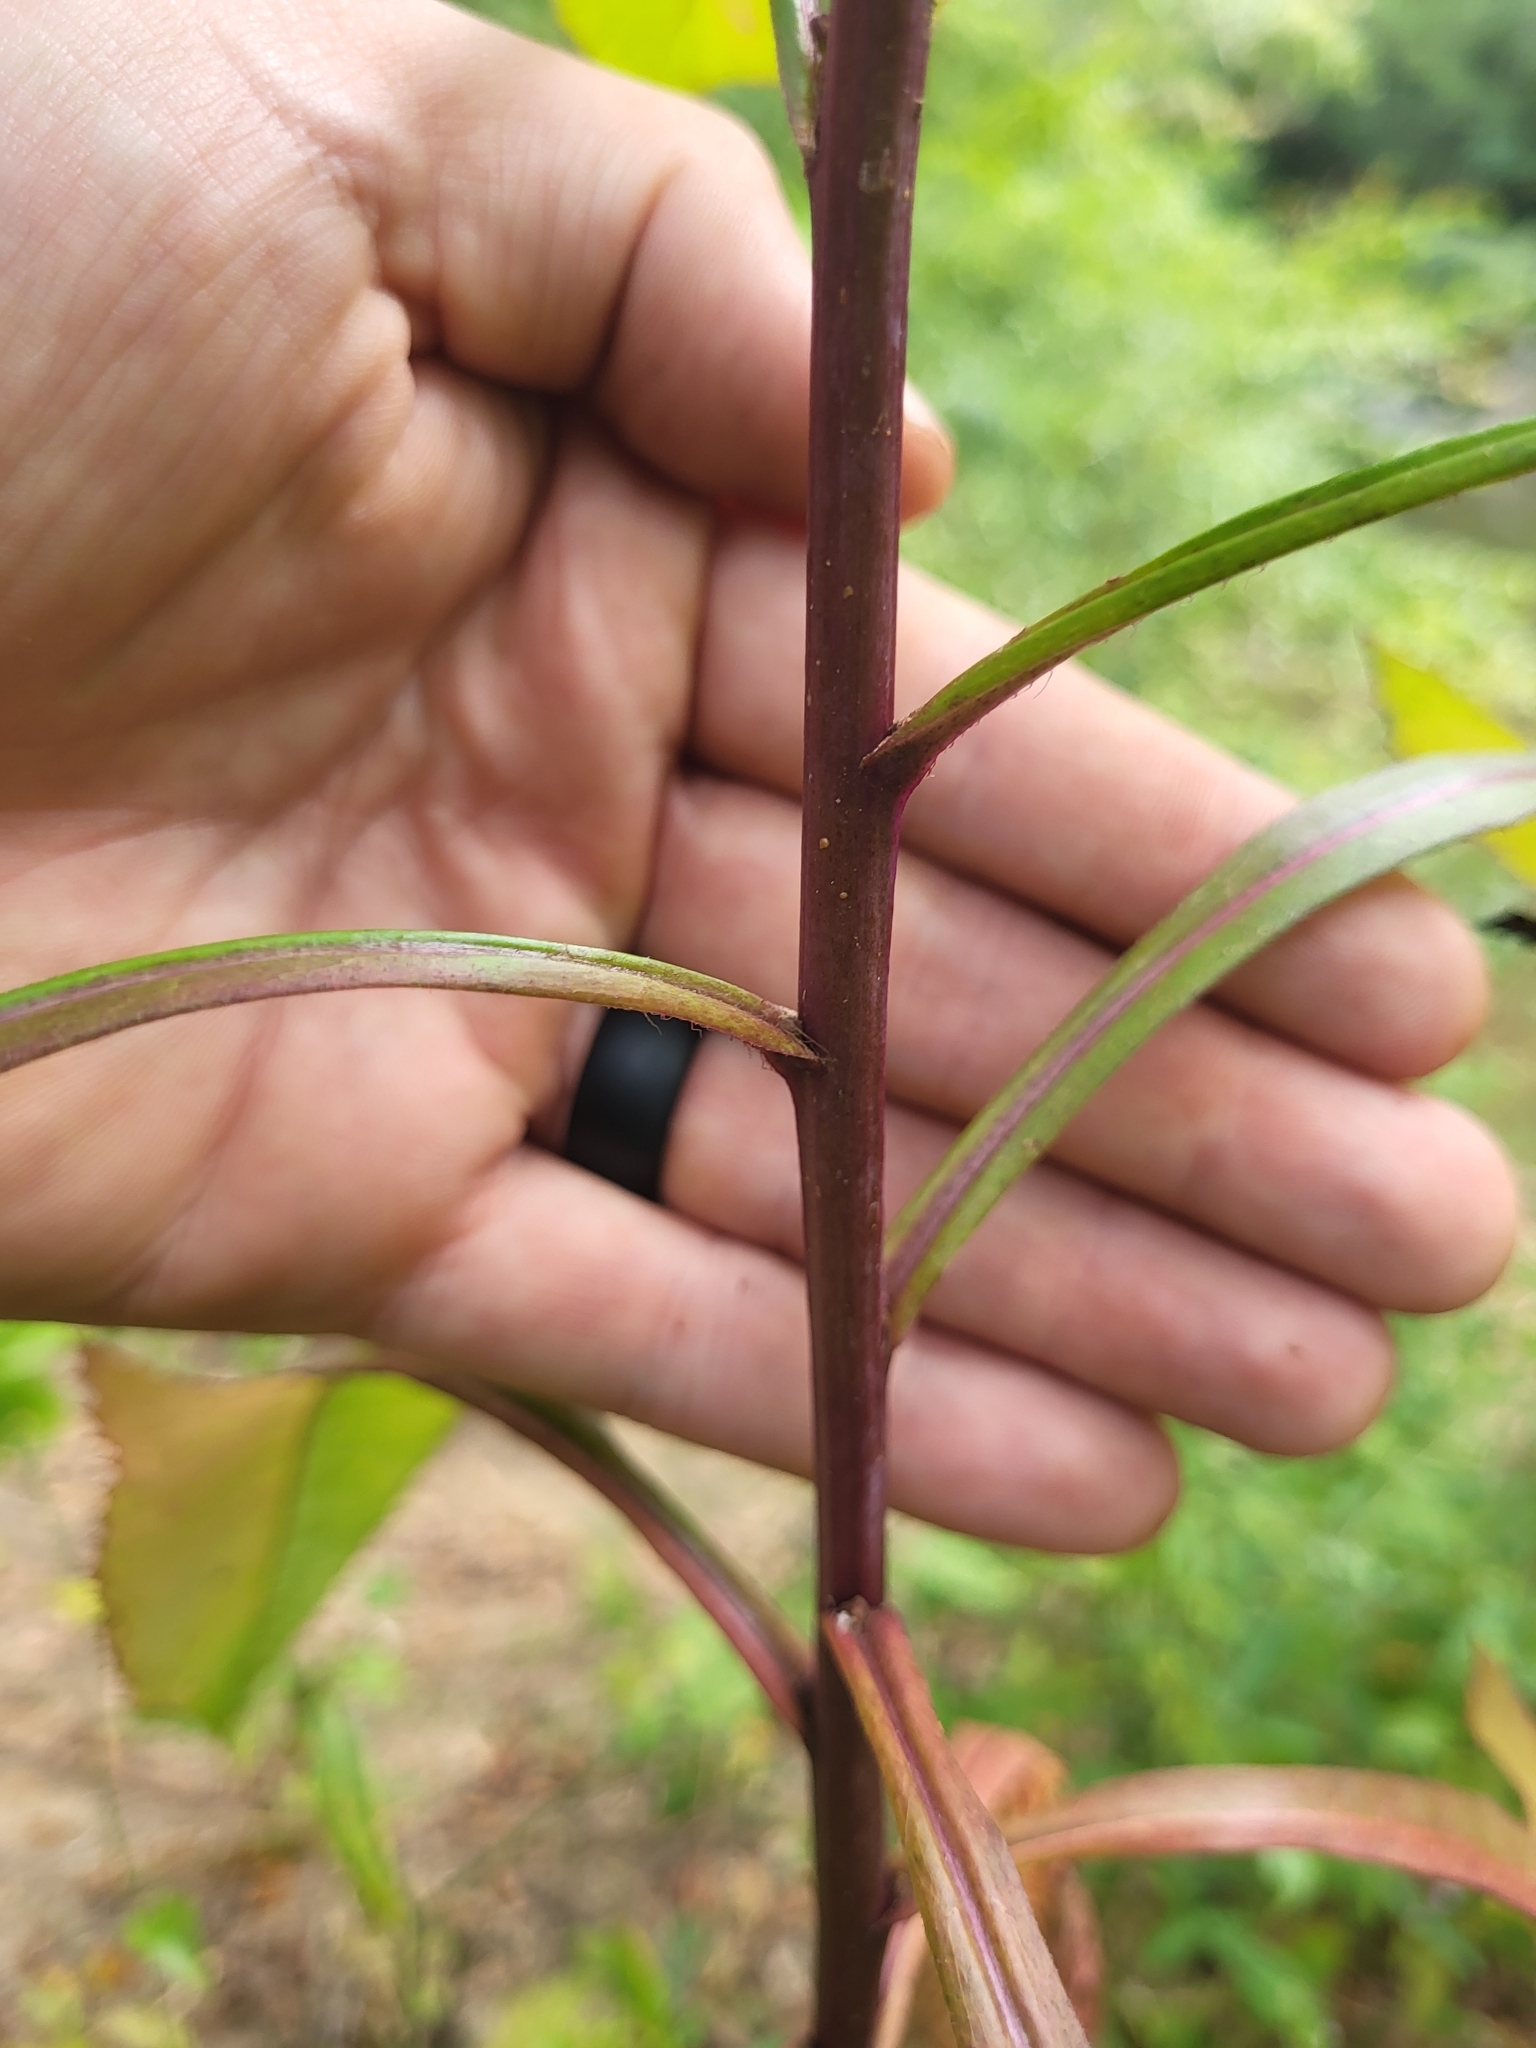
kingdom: Plantae
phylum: Tracheophyta
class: Magnoliopsida
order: Asterales
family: Asteraceae
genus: Lactuca
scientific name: Lactuca floridana
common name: Woodland lettuce
